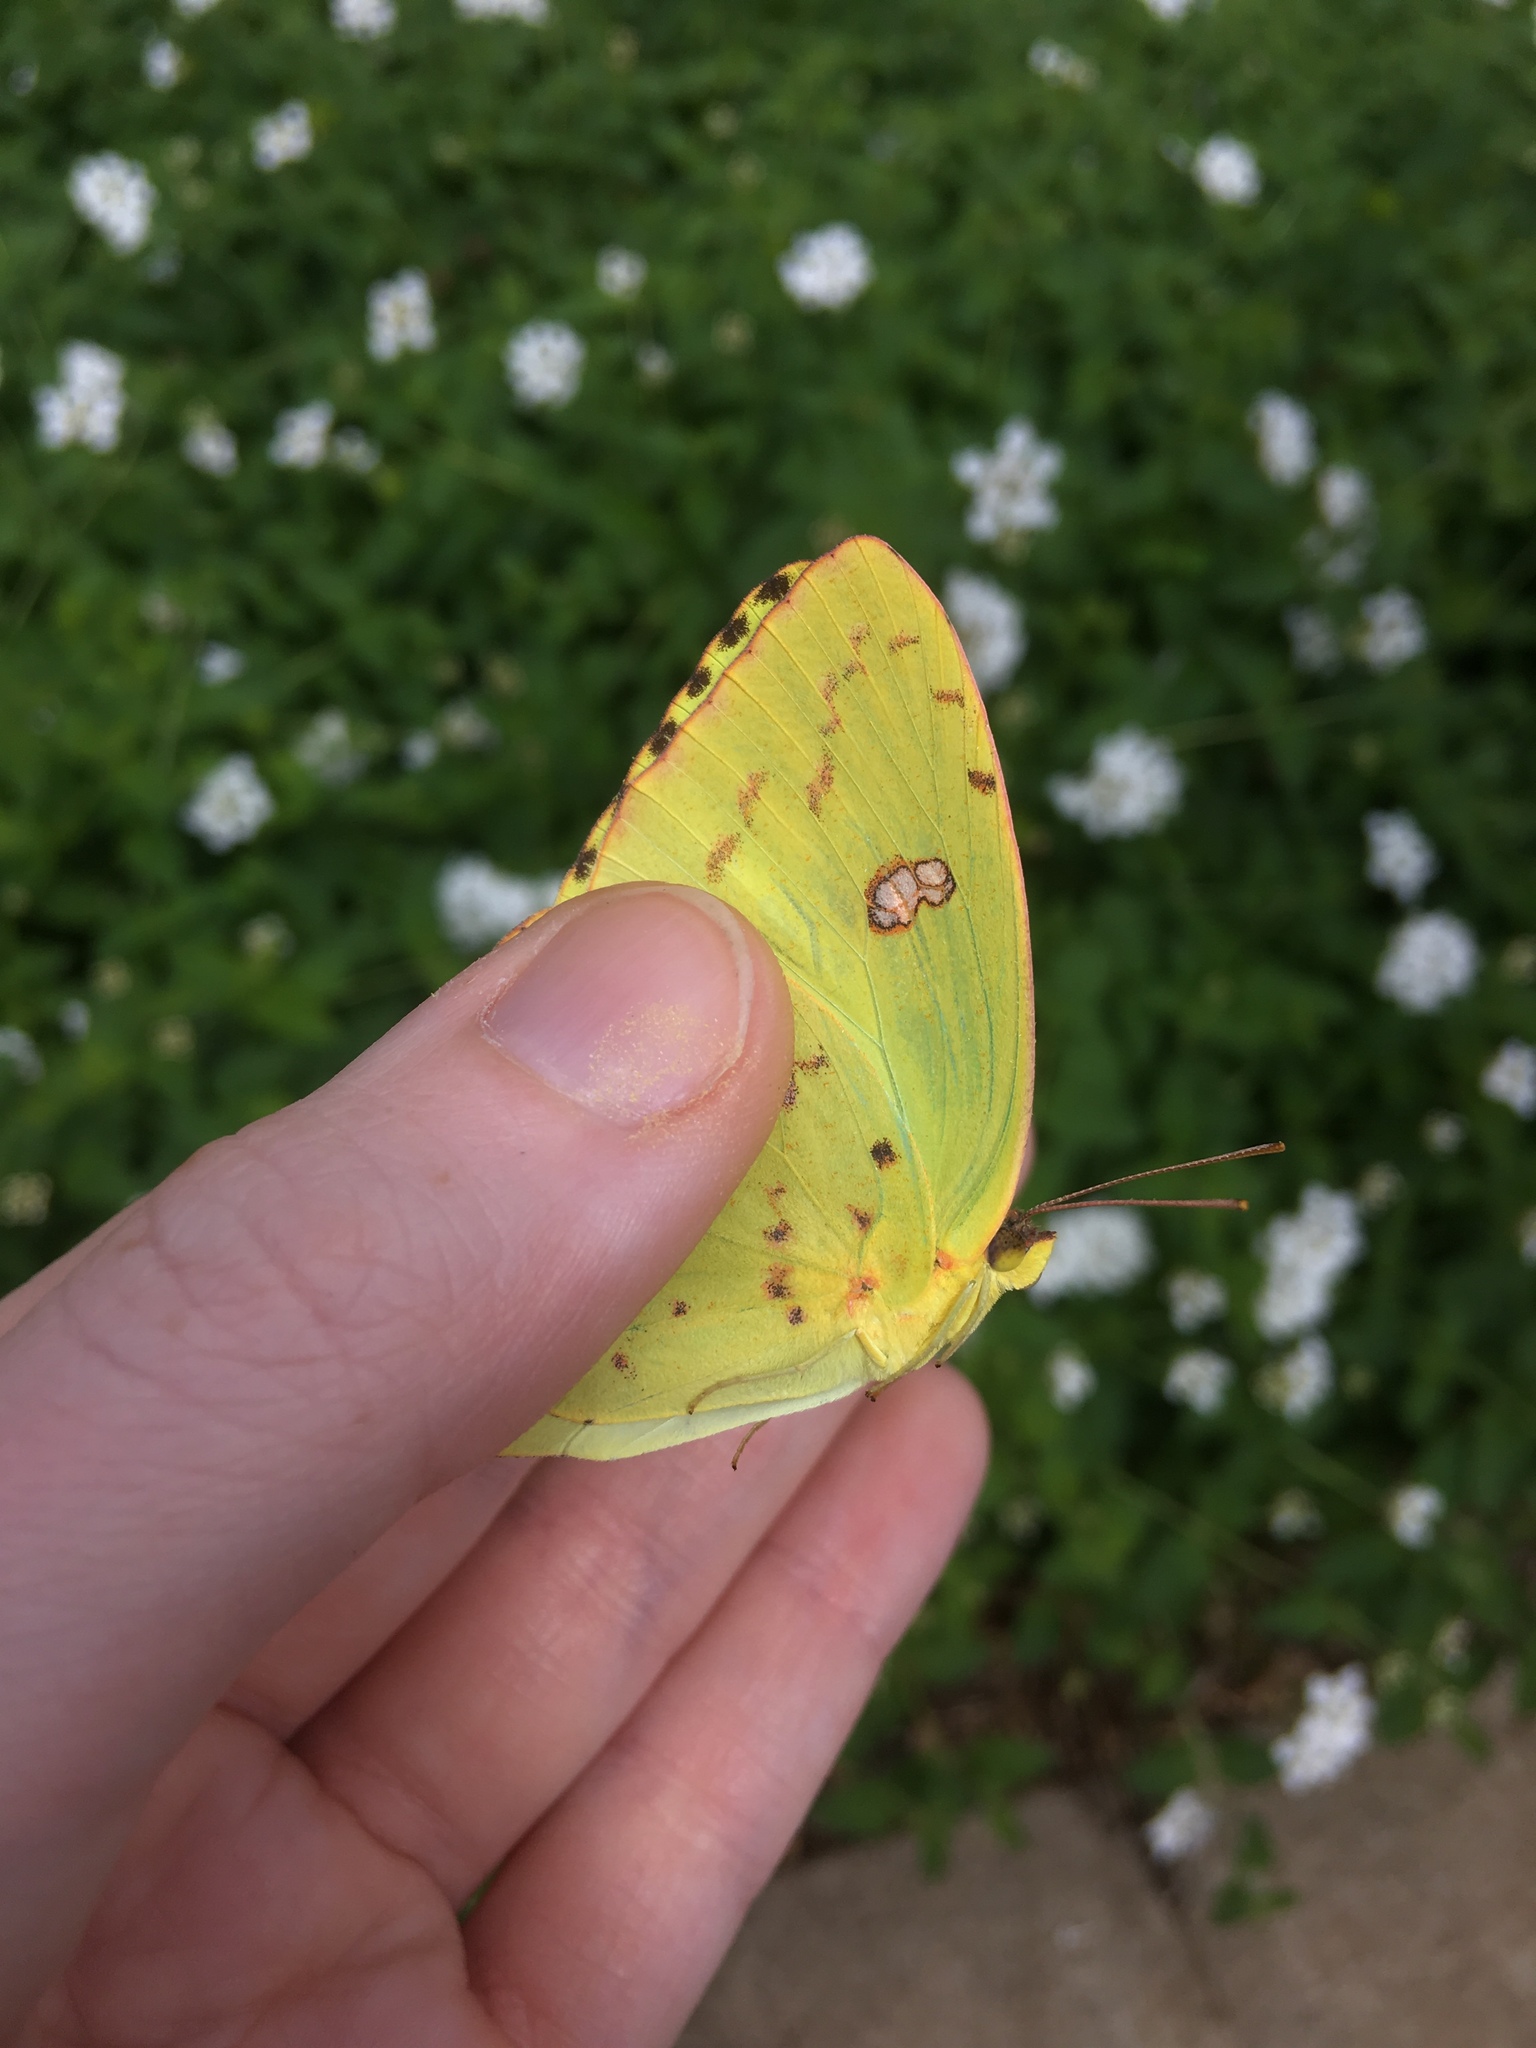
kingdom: Animalia
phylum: Arthropoda
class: Insecta
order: Lepidoptera
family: Pieridae
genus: Phoebis
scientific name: Phoebis sennae
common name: Cloudless sulphur
